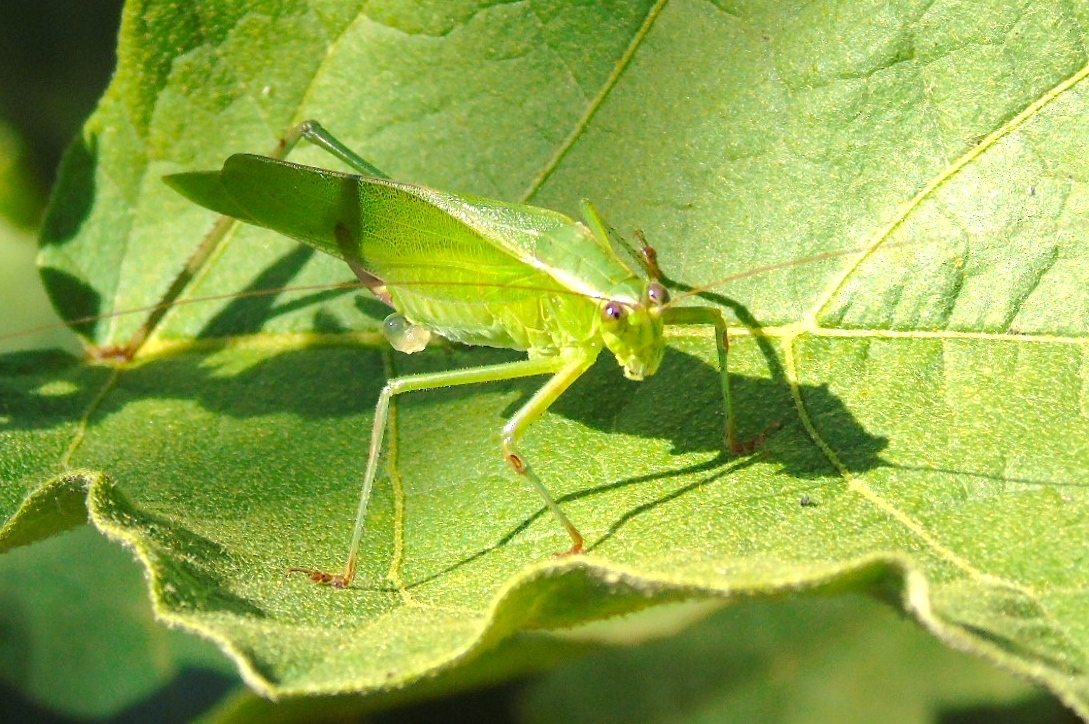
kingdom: Animalia
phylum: Arthropoda
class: Insecta
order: Orthoptera
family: Tettigoniidae
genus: Scudderia
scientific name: Scudderia
